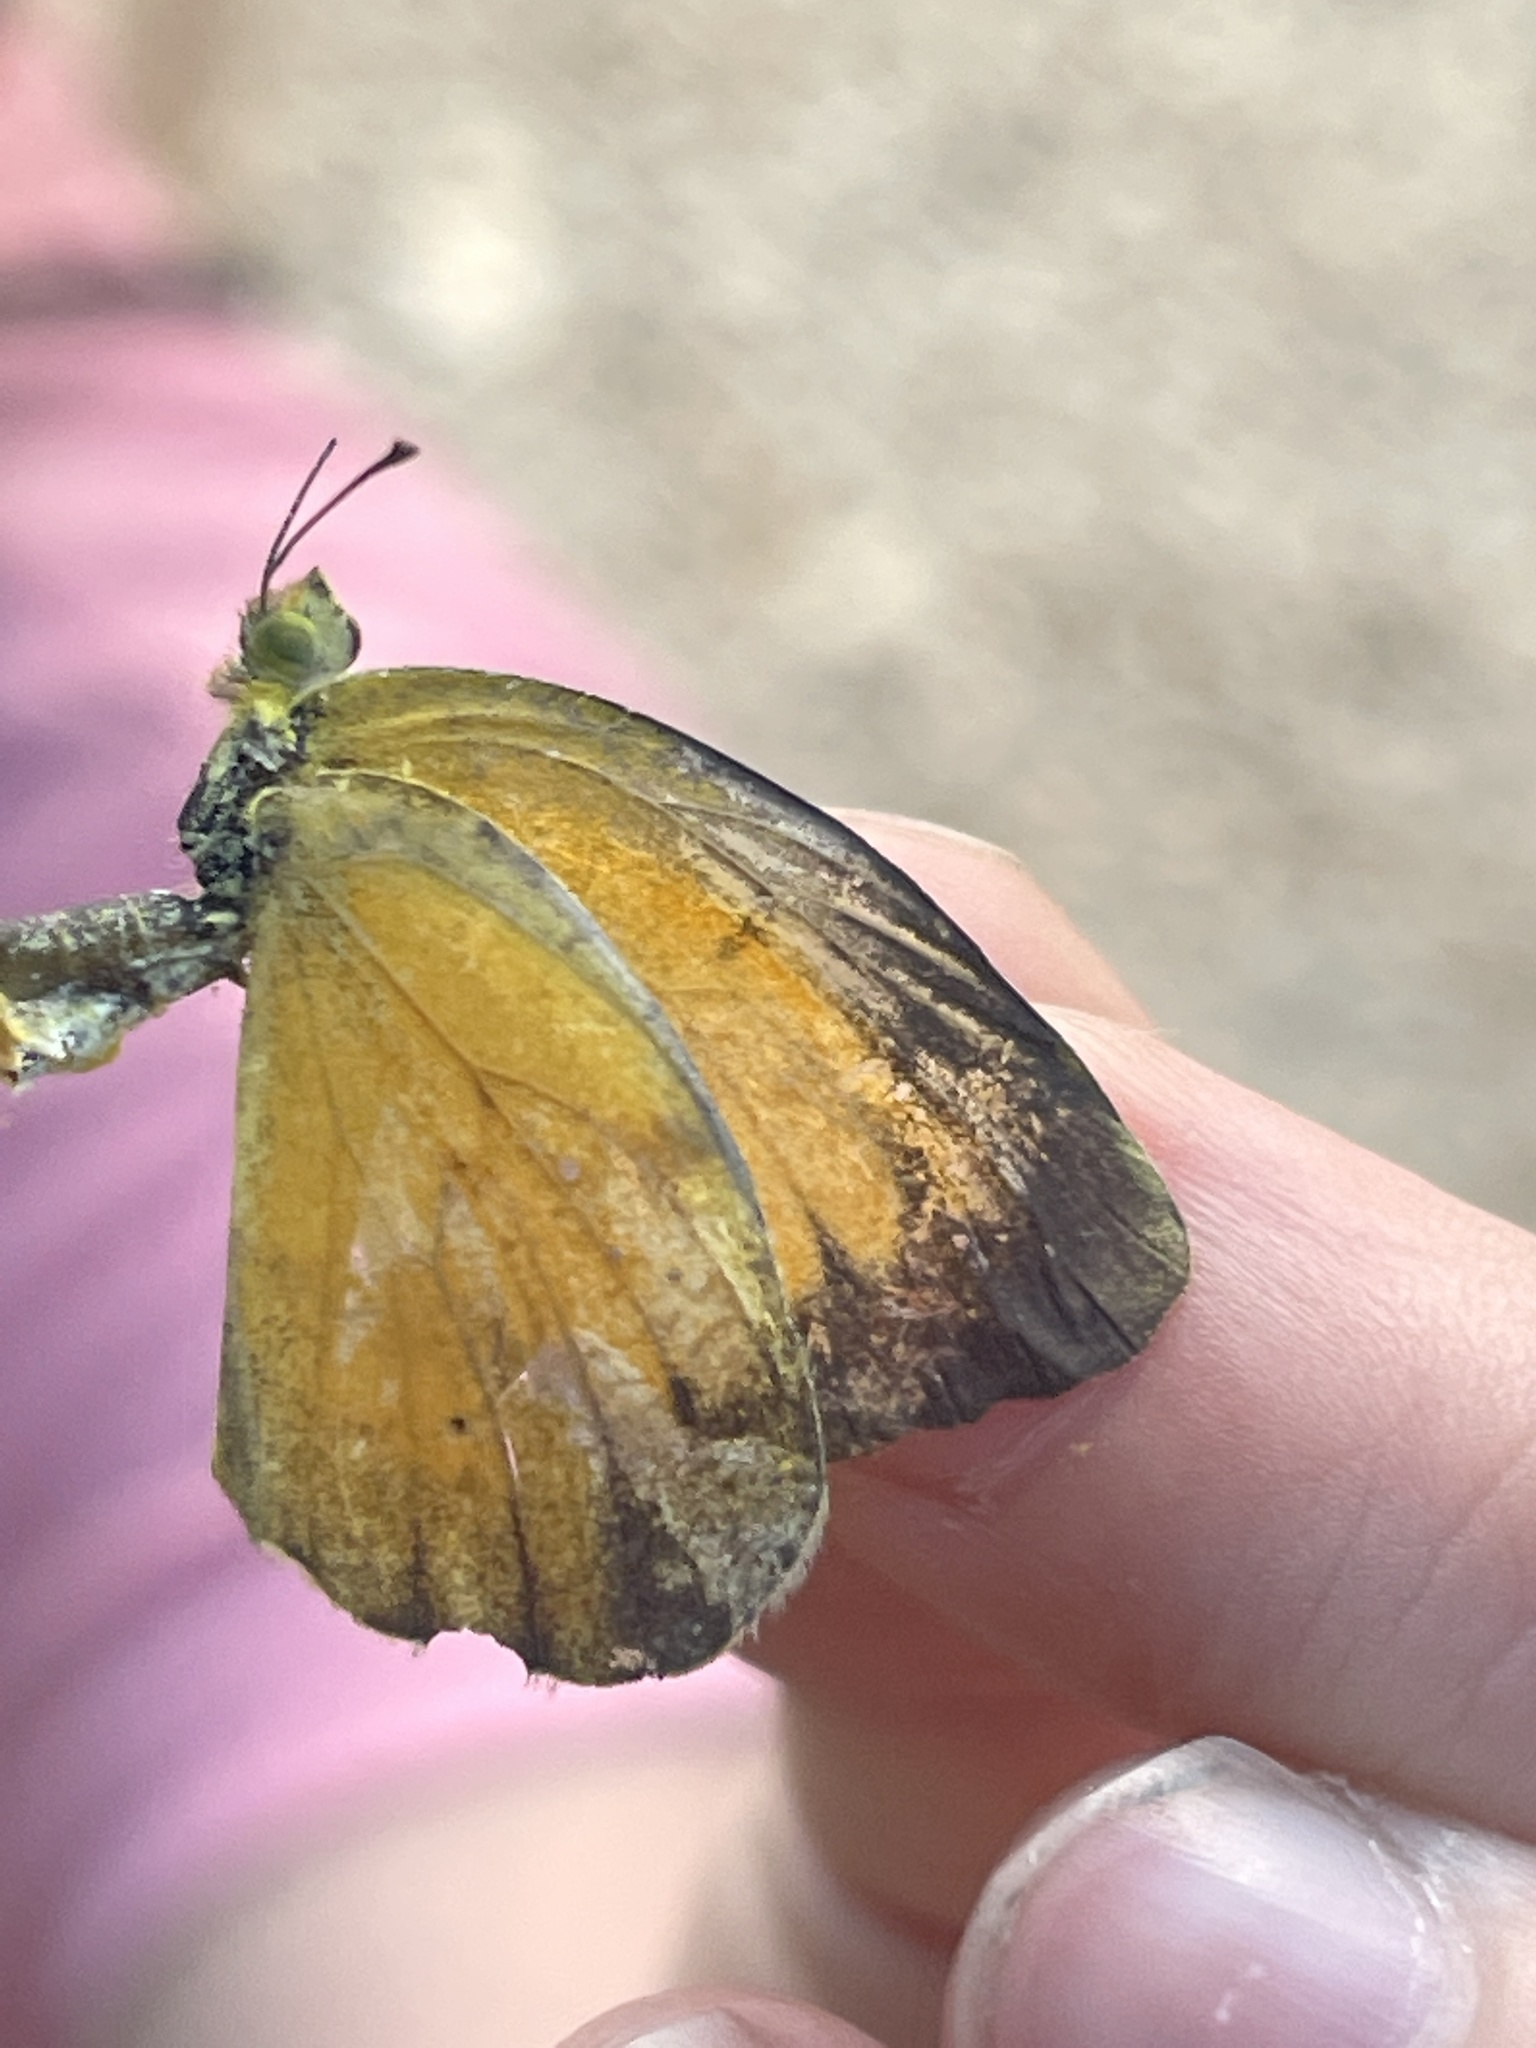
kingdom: Animalia
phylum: Arthropoda
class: Insecta
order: Lepidoptera
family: Pieridae
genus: Abaeis
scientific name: Abaeis nicippe
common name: Sleepy orange
